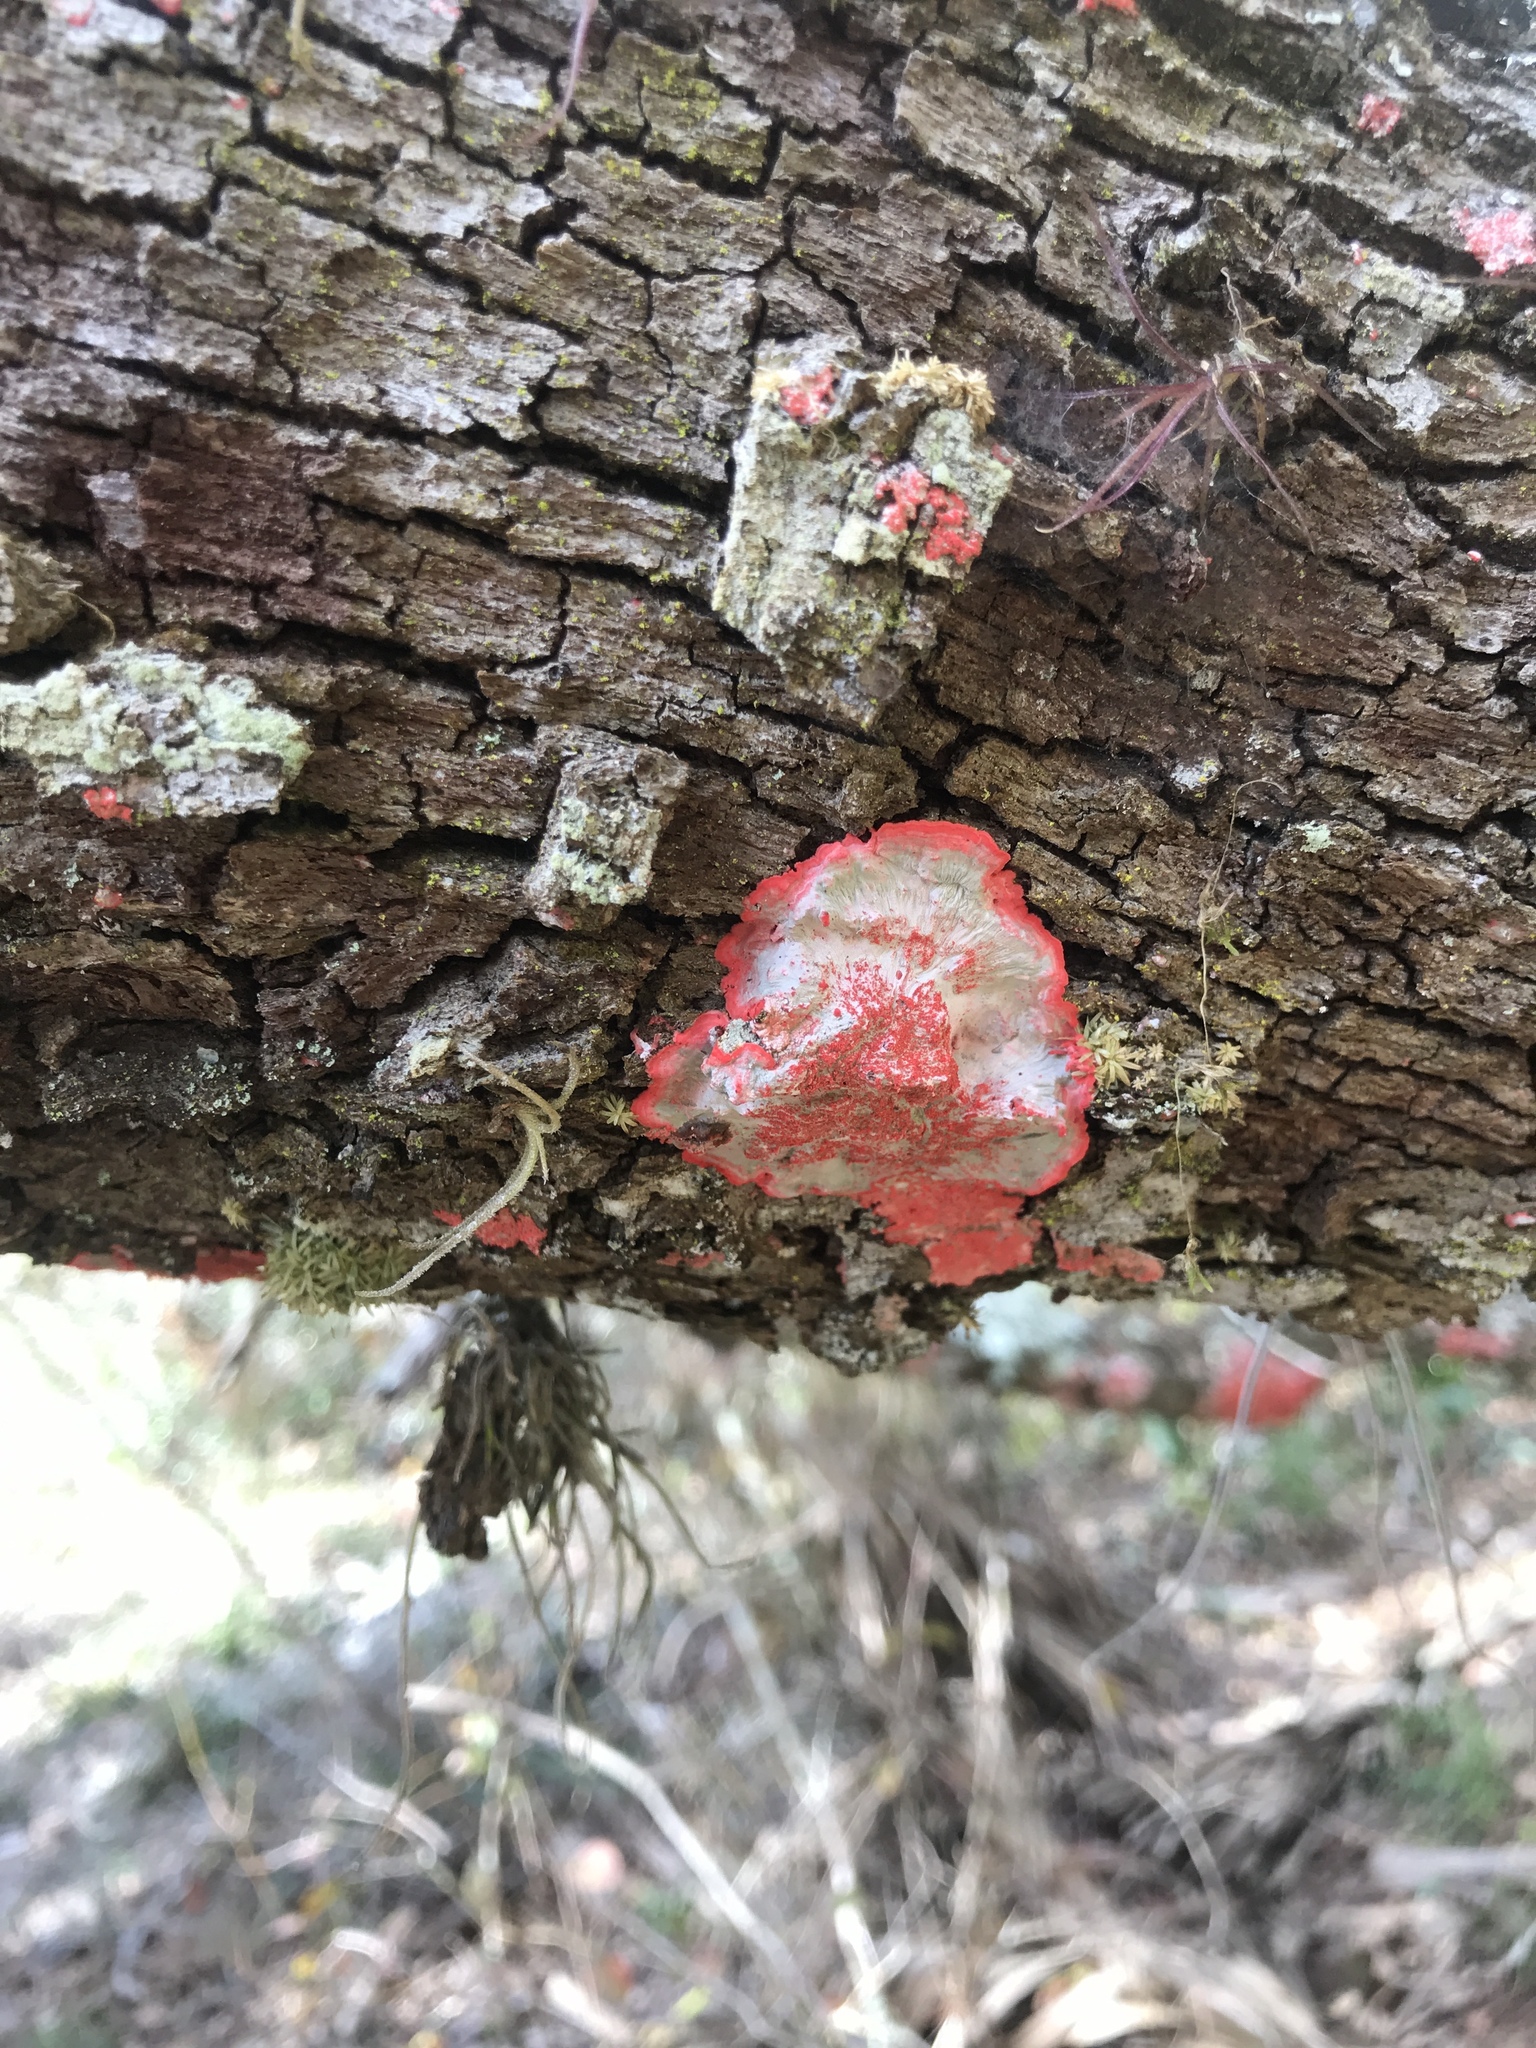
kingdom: Fungi
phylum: Ascomycota
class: Arthoniomycetes
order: Arthoniales
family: Arthoniaceae
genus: Herpothallon
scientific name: Herpothallon rubrocinctum
